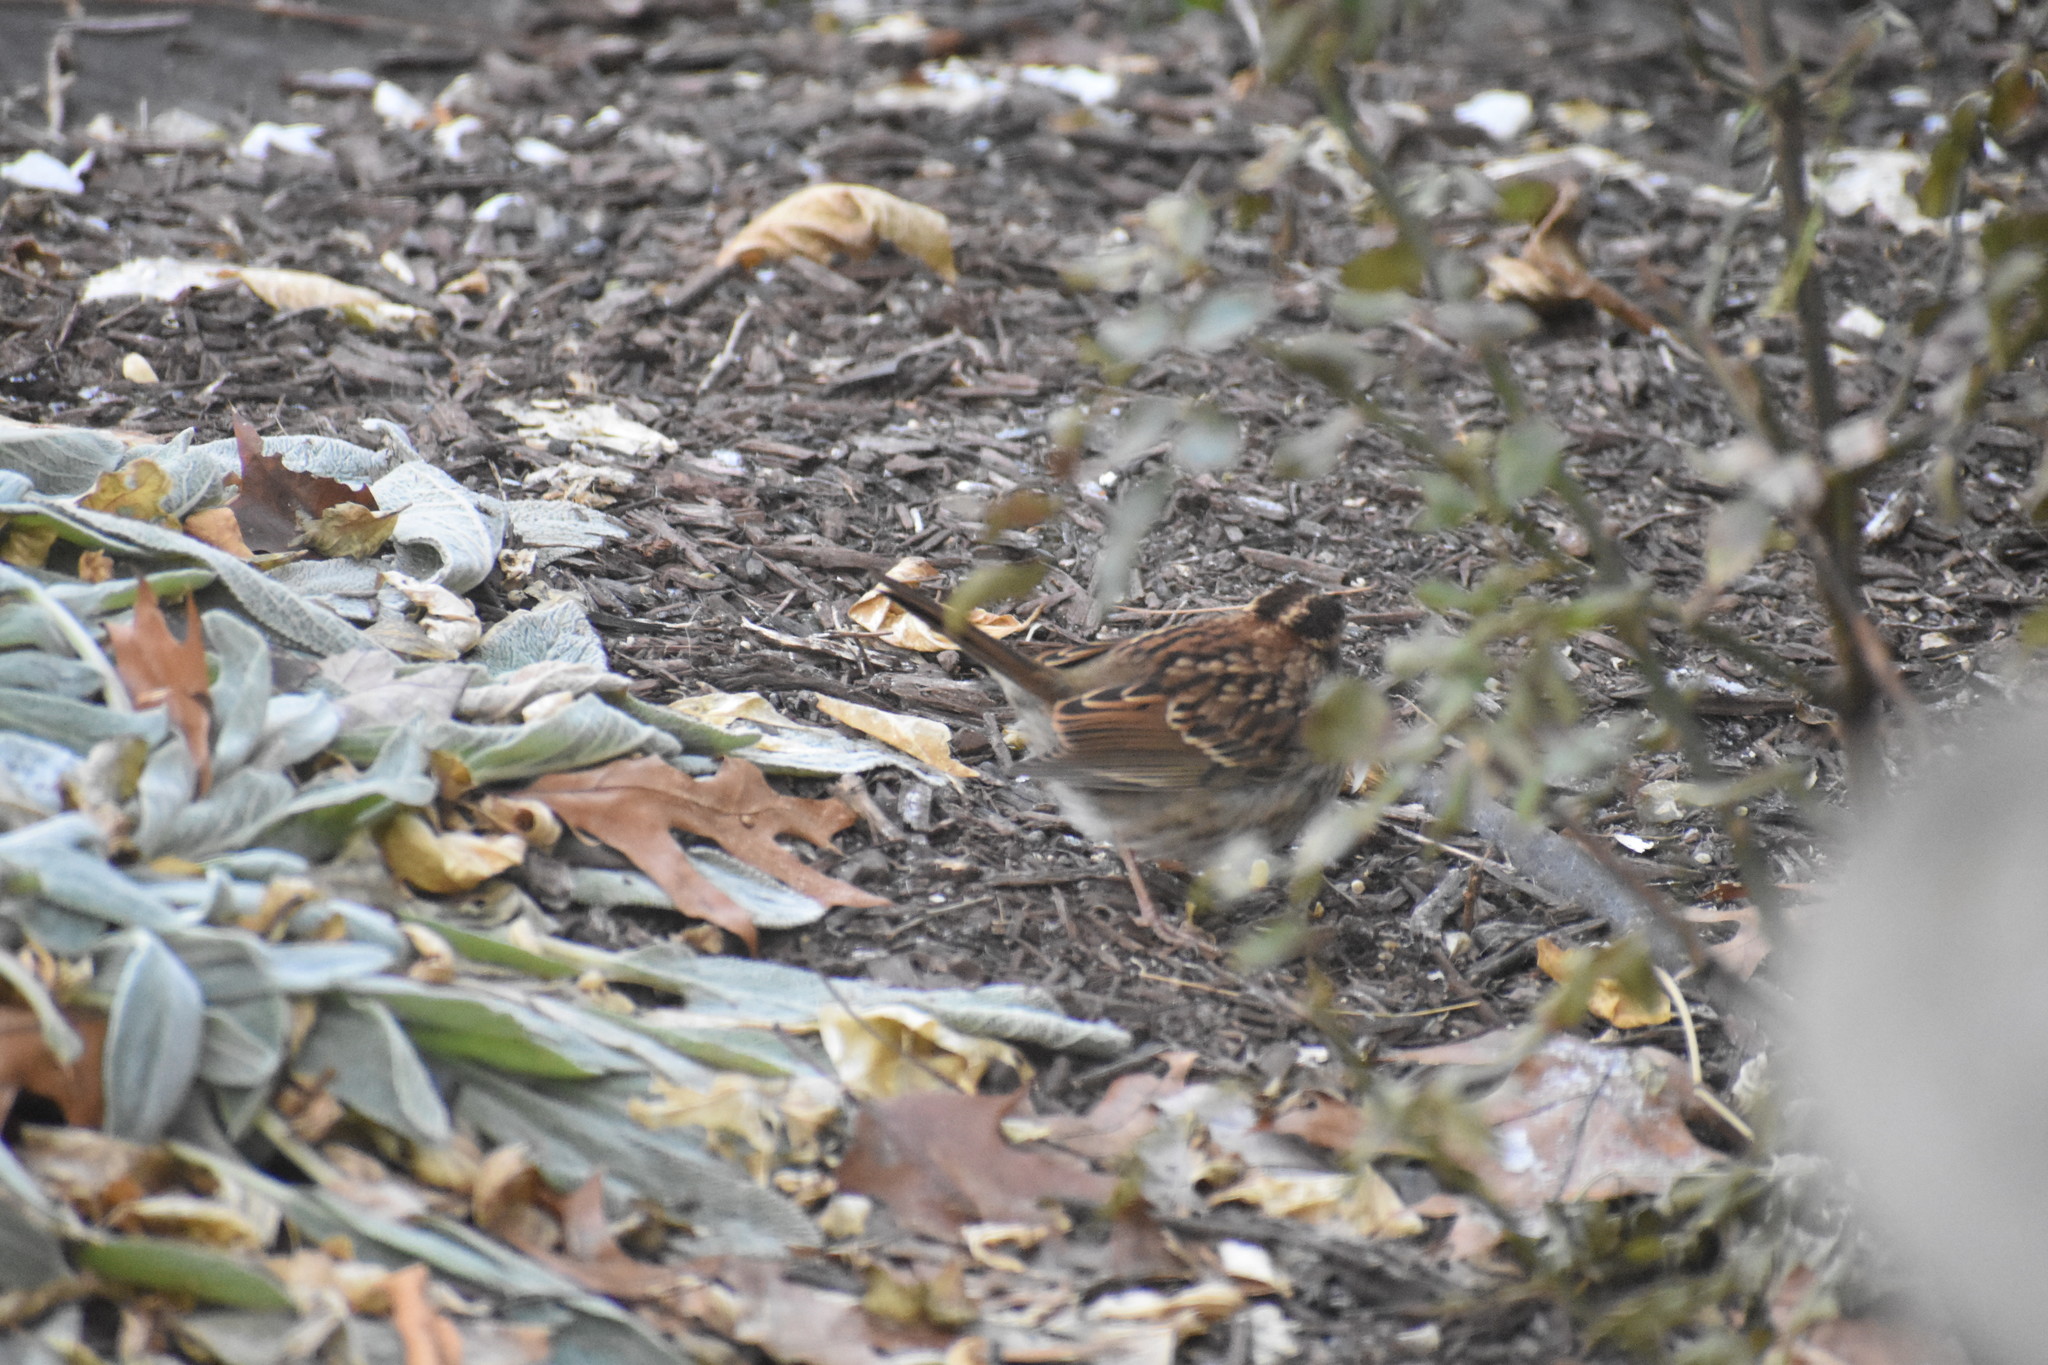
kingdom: Animalia
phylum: Chordata
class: Aves
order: Passeriformes
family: Passerellidae
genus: Zonotrichia
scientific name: Zonotrichia albicollis
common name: White-throated sparrow
